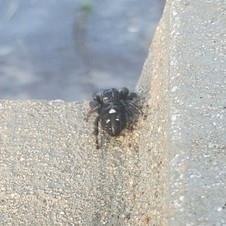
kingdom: Animalia
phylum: Arthropoda
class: Arachnida
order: Araneae
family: Salticidae
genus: Phidippus
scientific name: Phidippus audax
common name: Bold jumper
